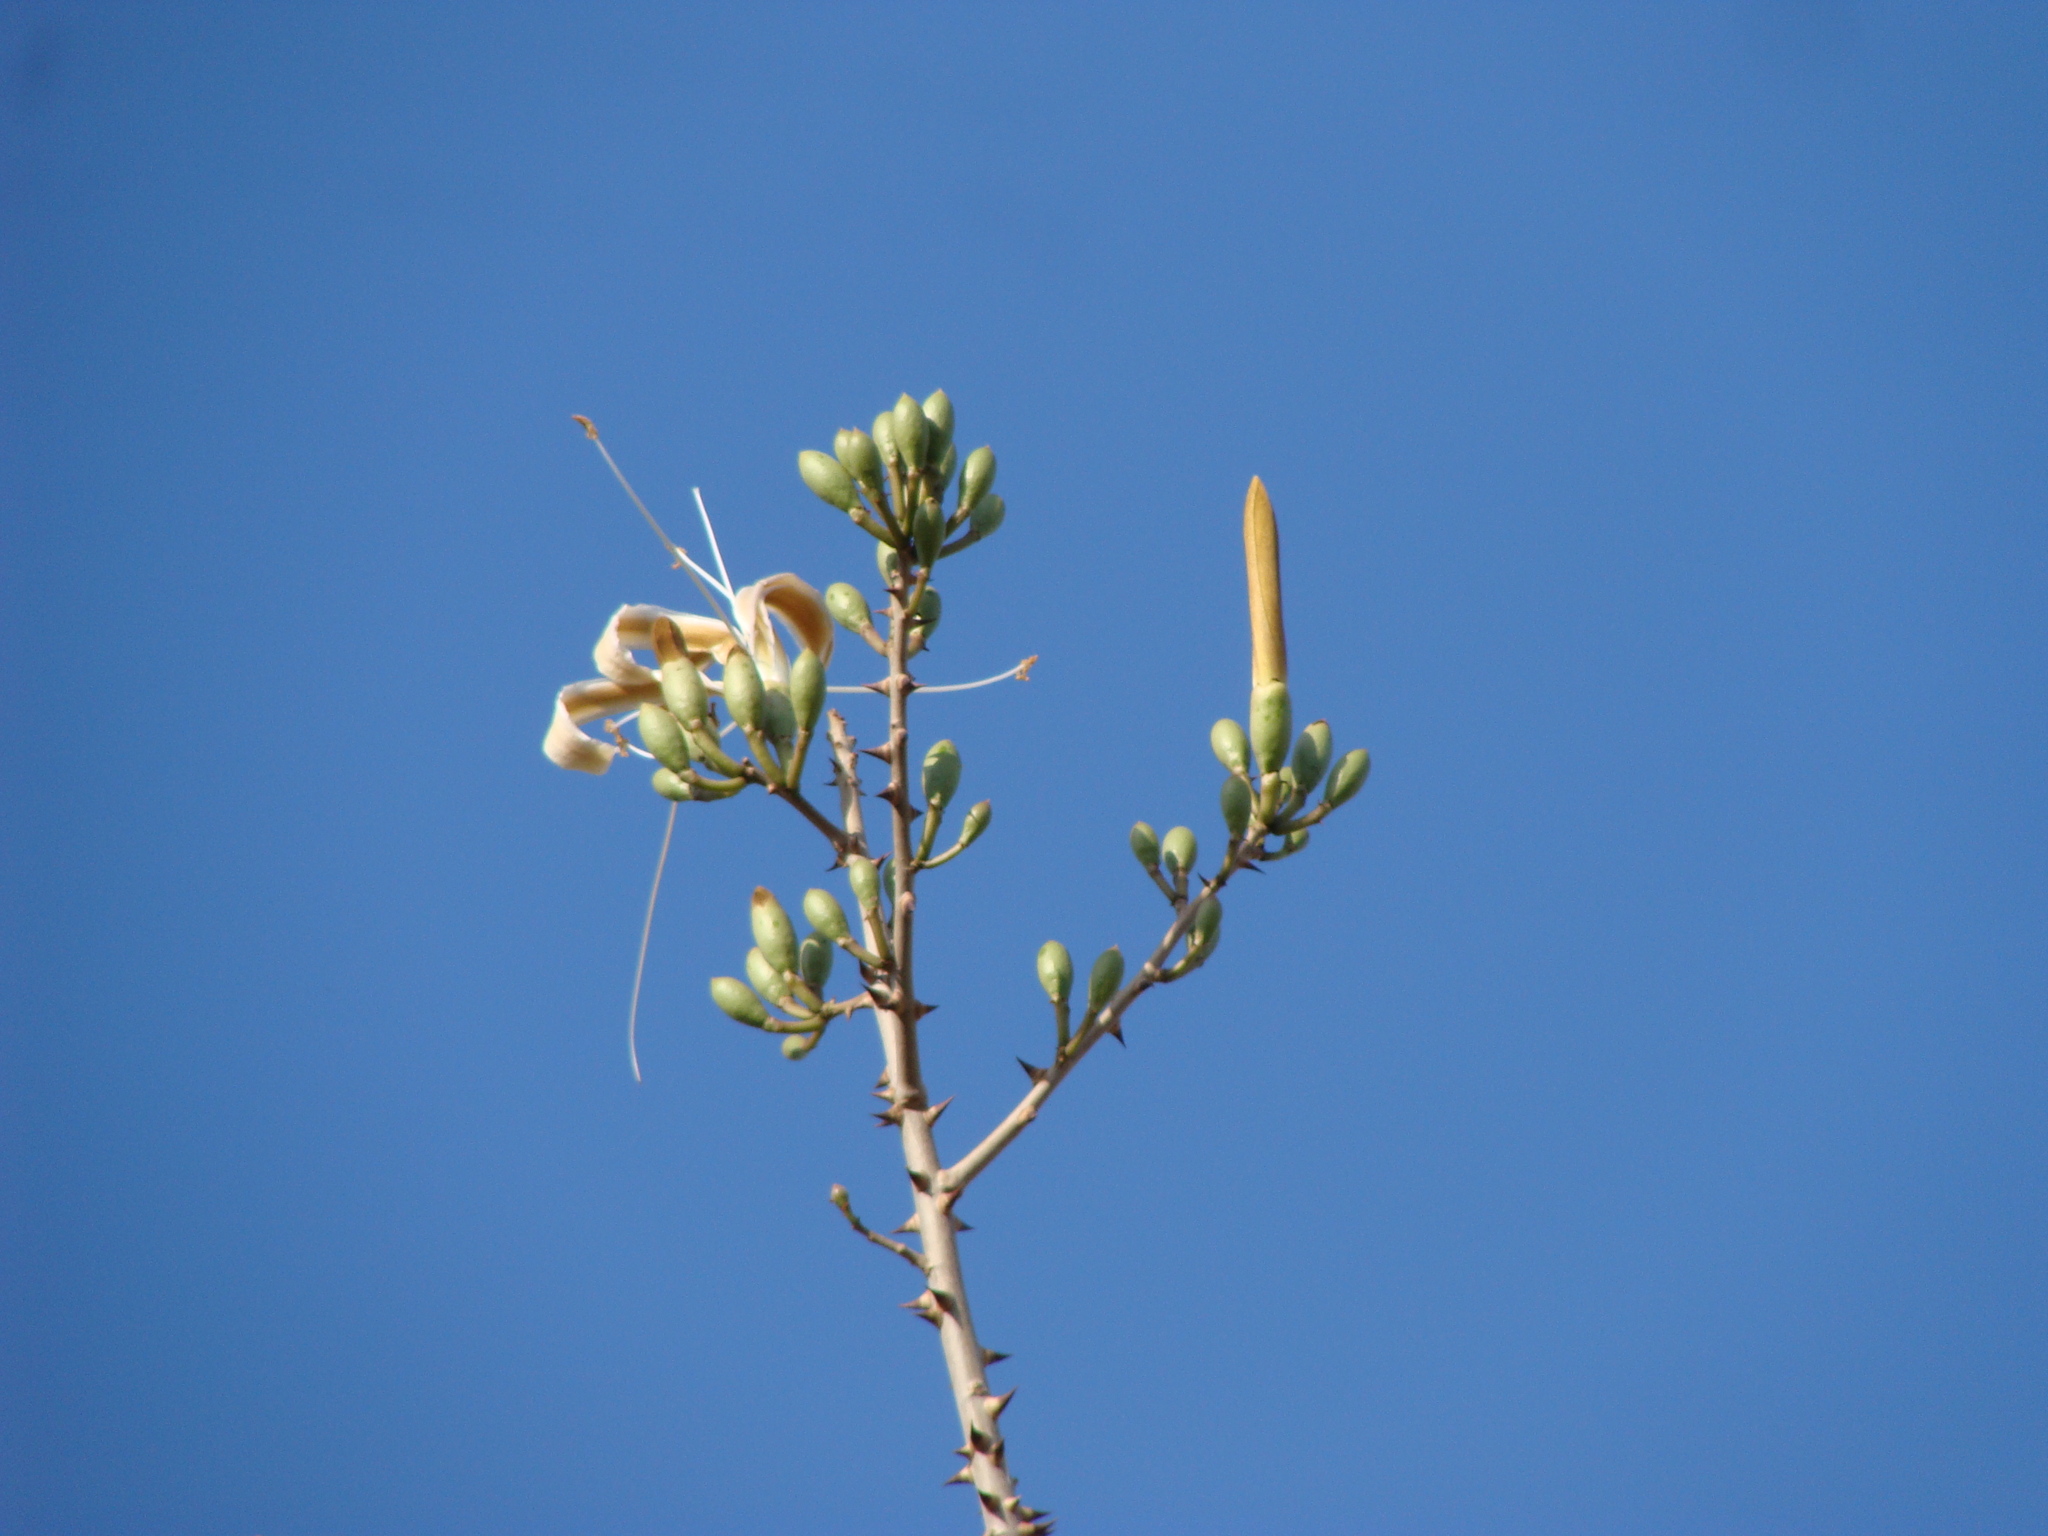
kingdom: Plantae
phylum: Tracheophyta
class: Magnoliopsida
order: Malvales
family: Malvaceae
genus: Ceiba
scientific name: Ceiba aesculifolia
